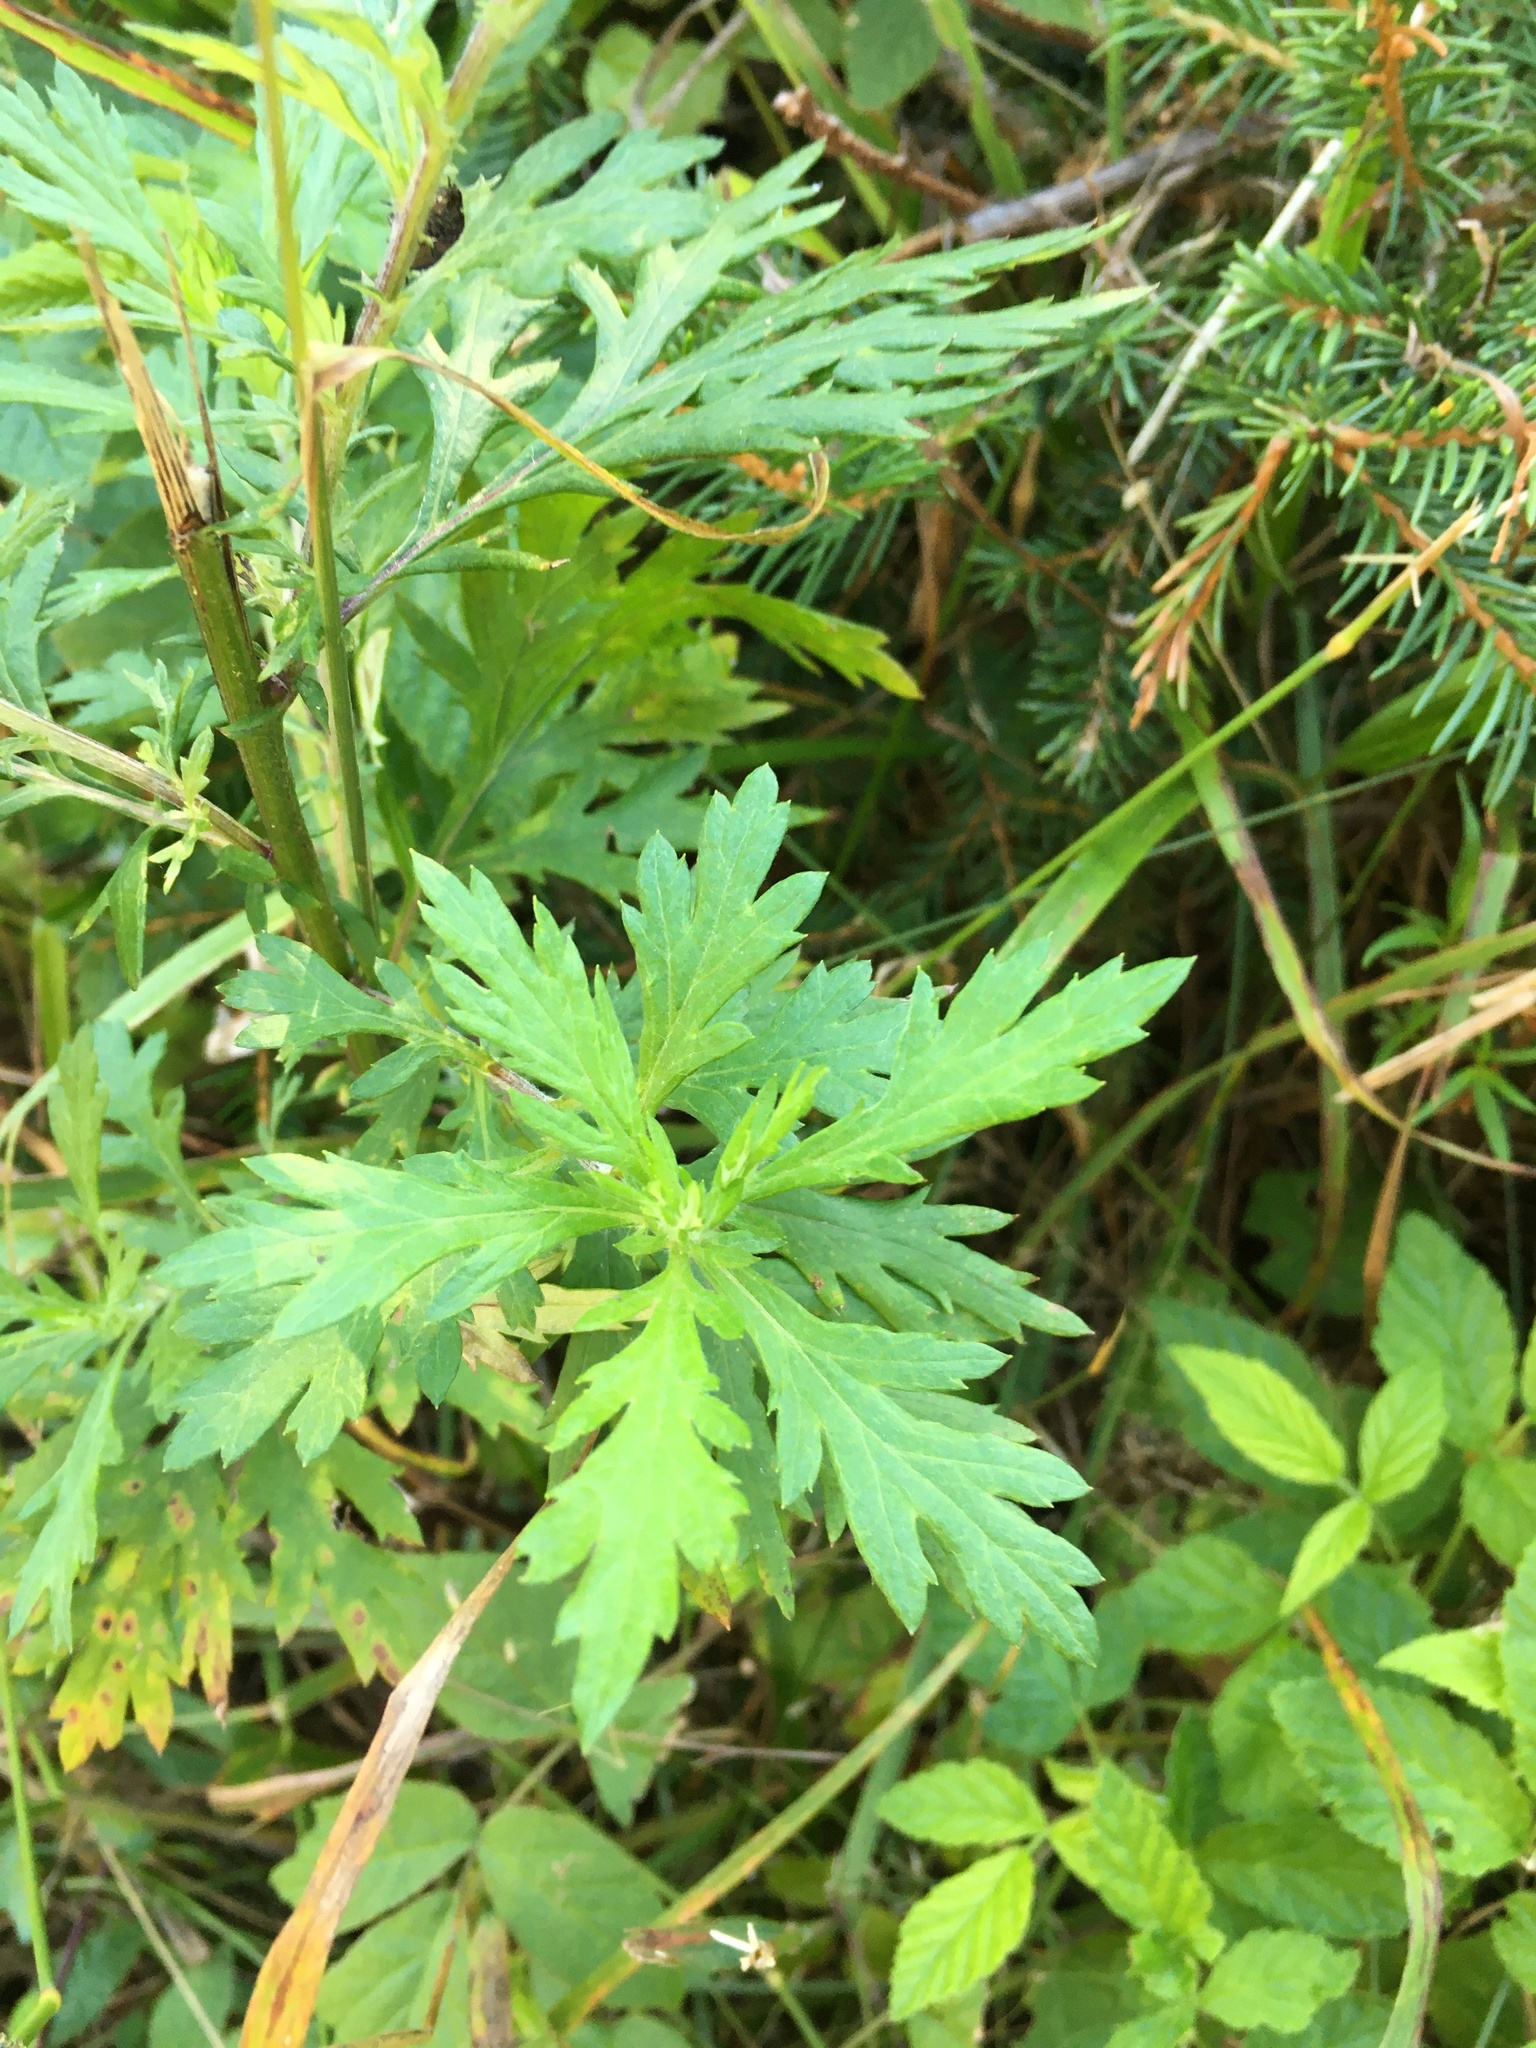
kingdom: Plantae
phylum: Tracheophyta
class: Magnoliopsida
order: Asterales
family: Asteraceae
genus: Artemisia
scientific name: Artemisia vulgaris
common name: Mugwort
